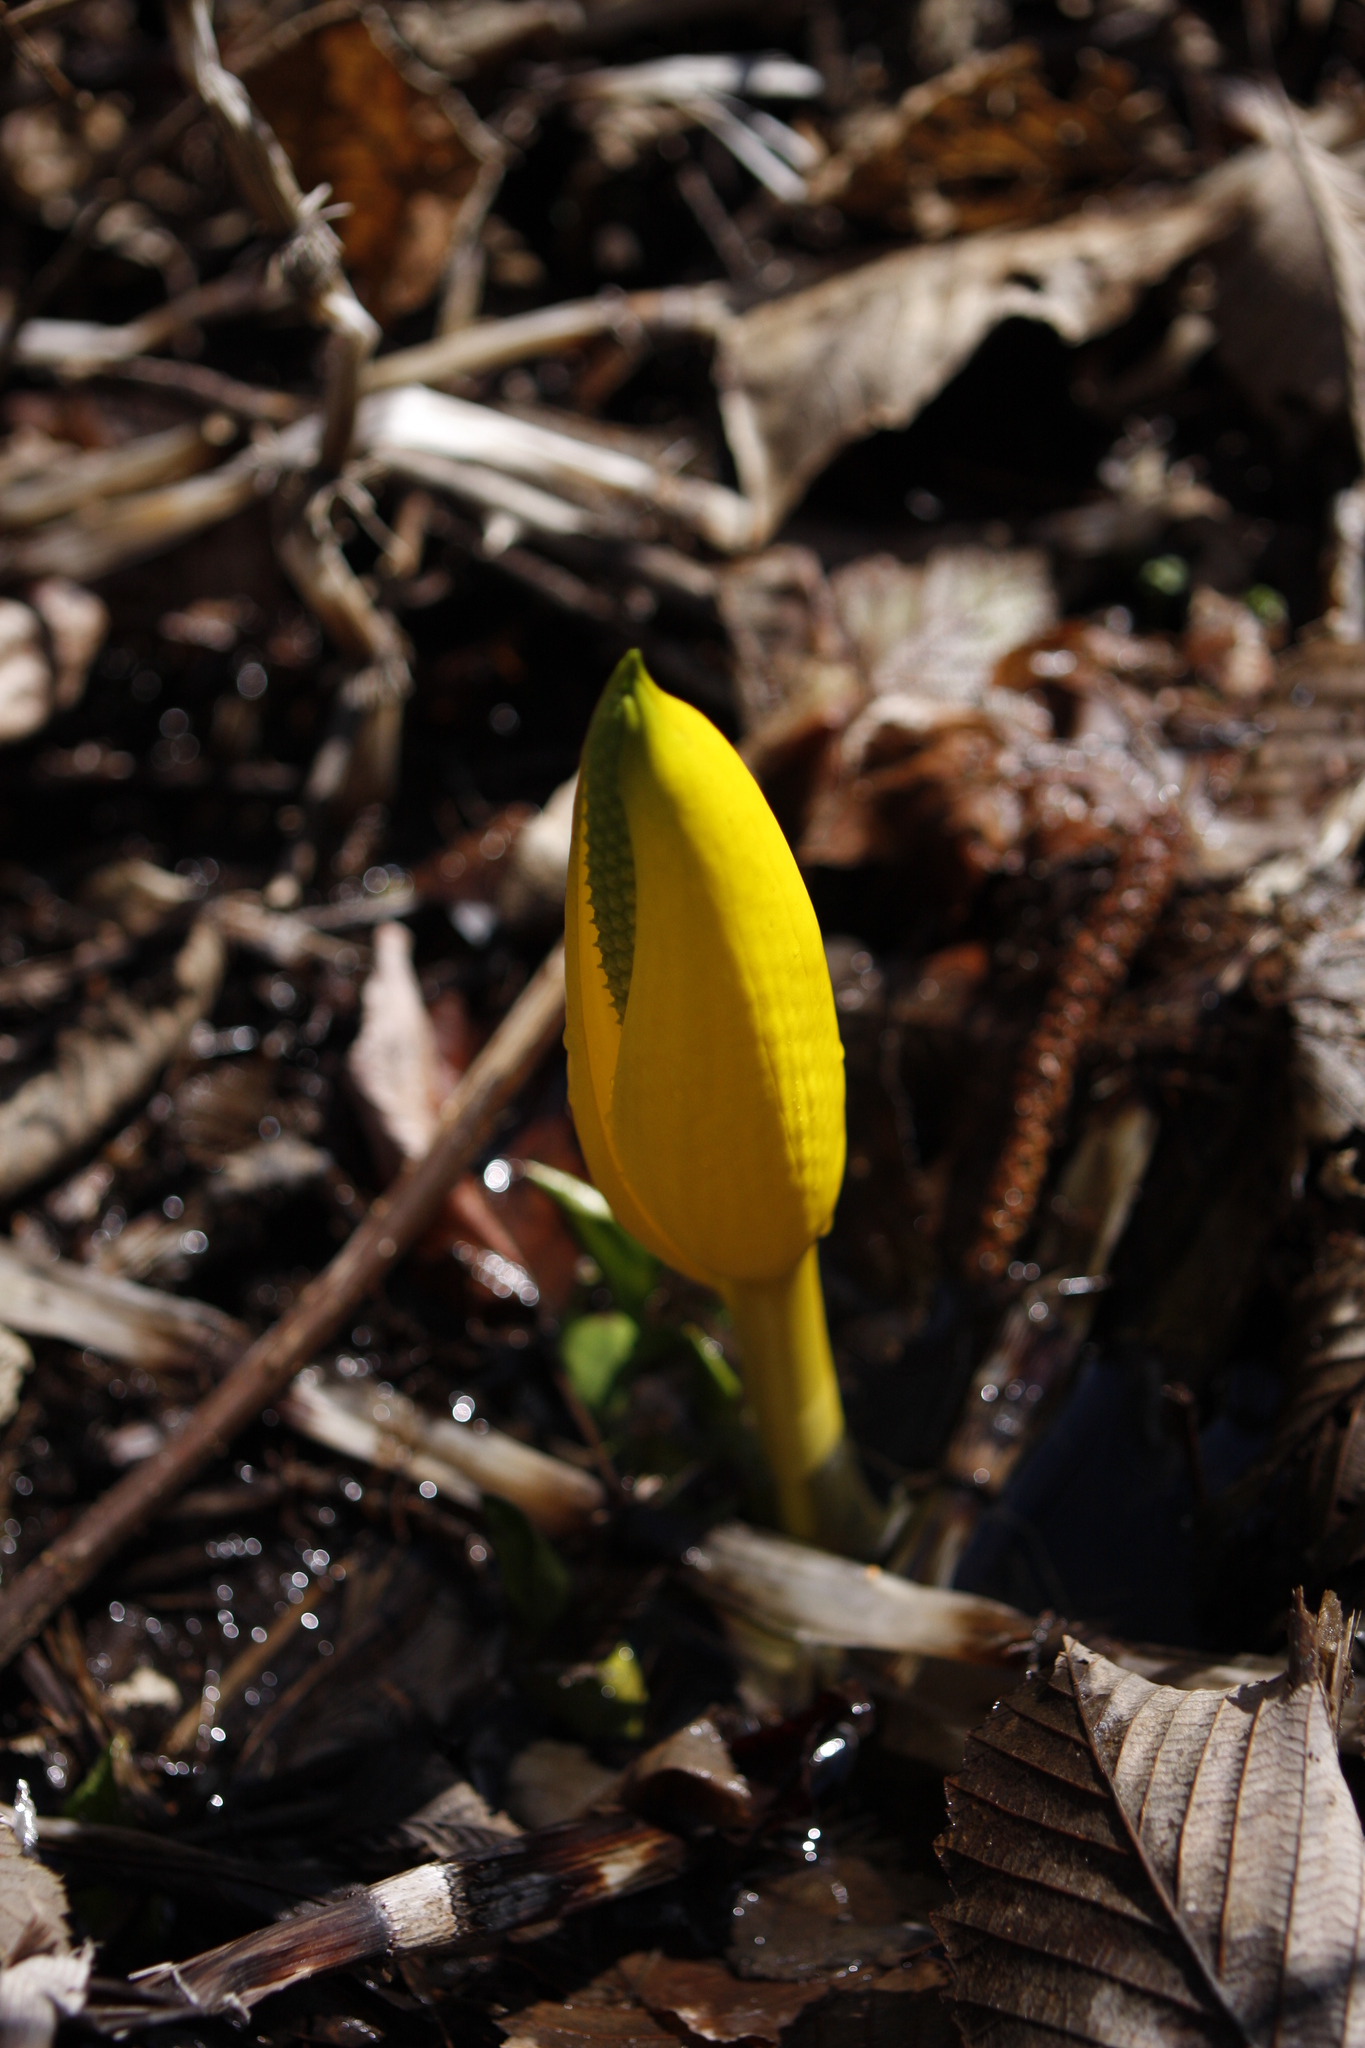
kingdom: Plantae
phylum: Tracheophyta
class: Liliopsida
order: Alismatales
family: Araceae
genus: Lysichiton
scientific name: Lysichiton americanus
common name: American skunk cabbage
